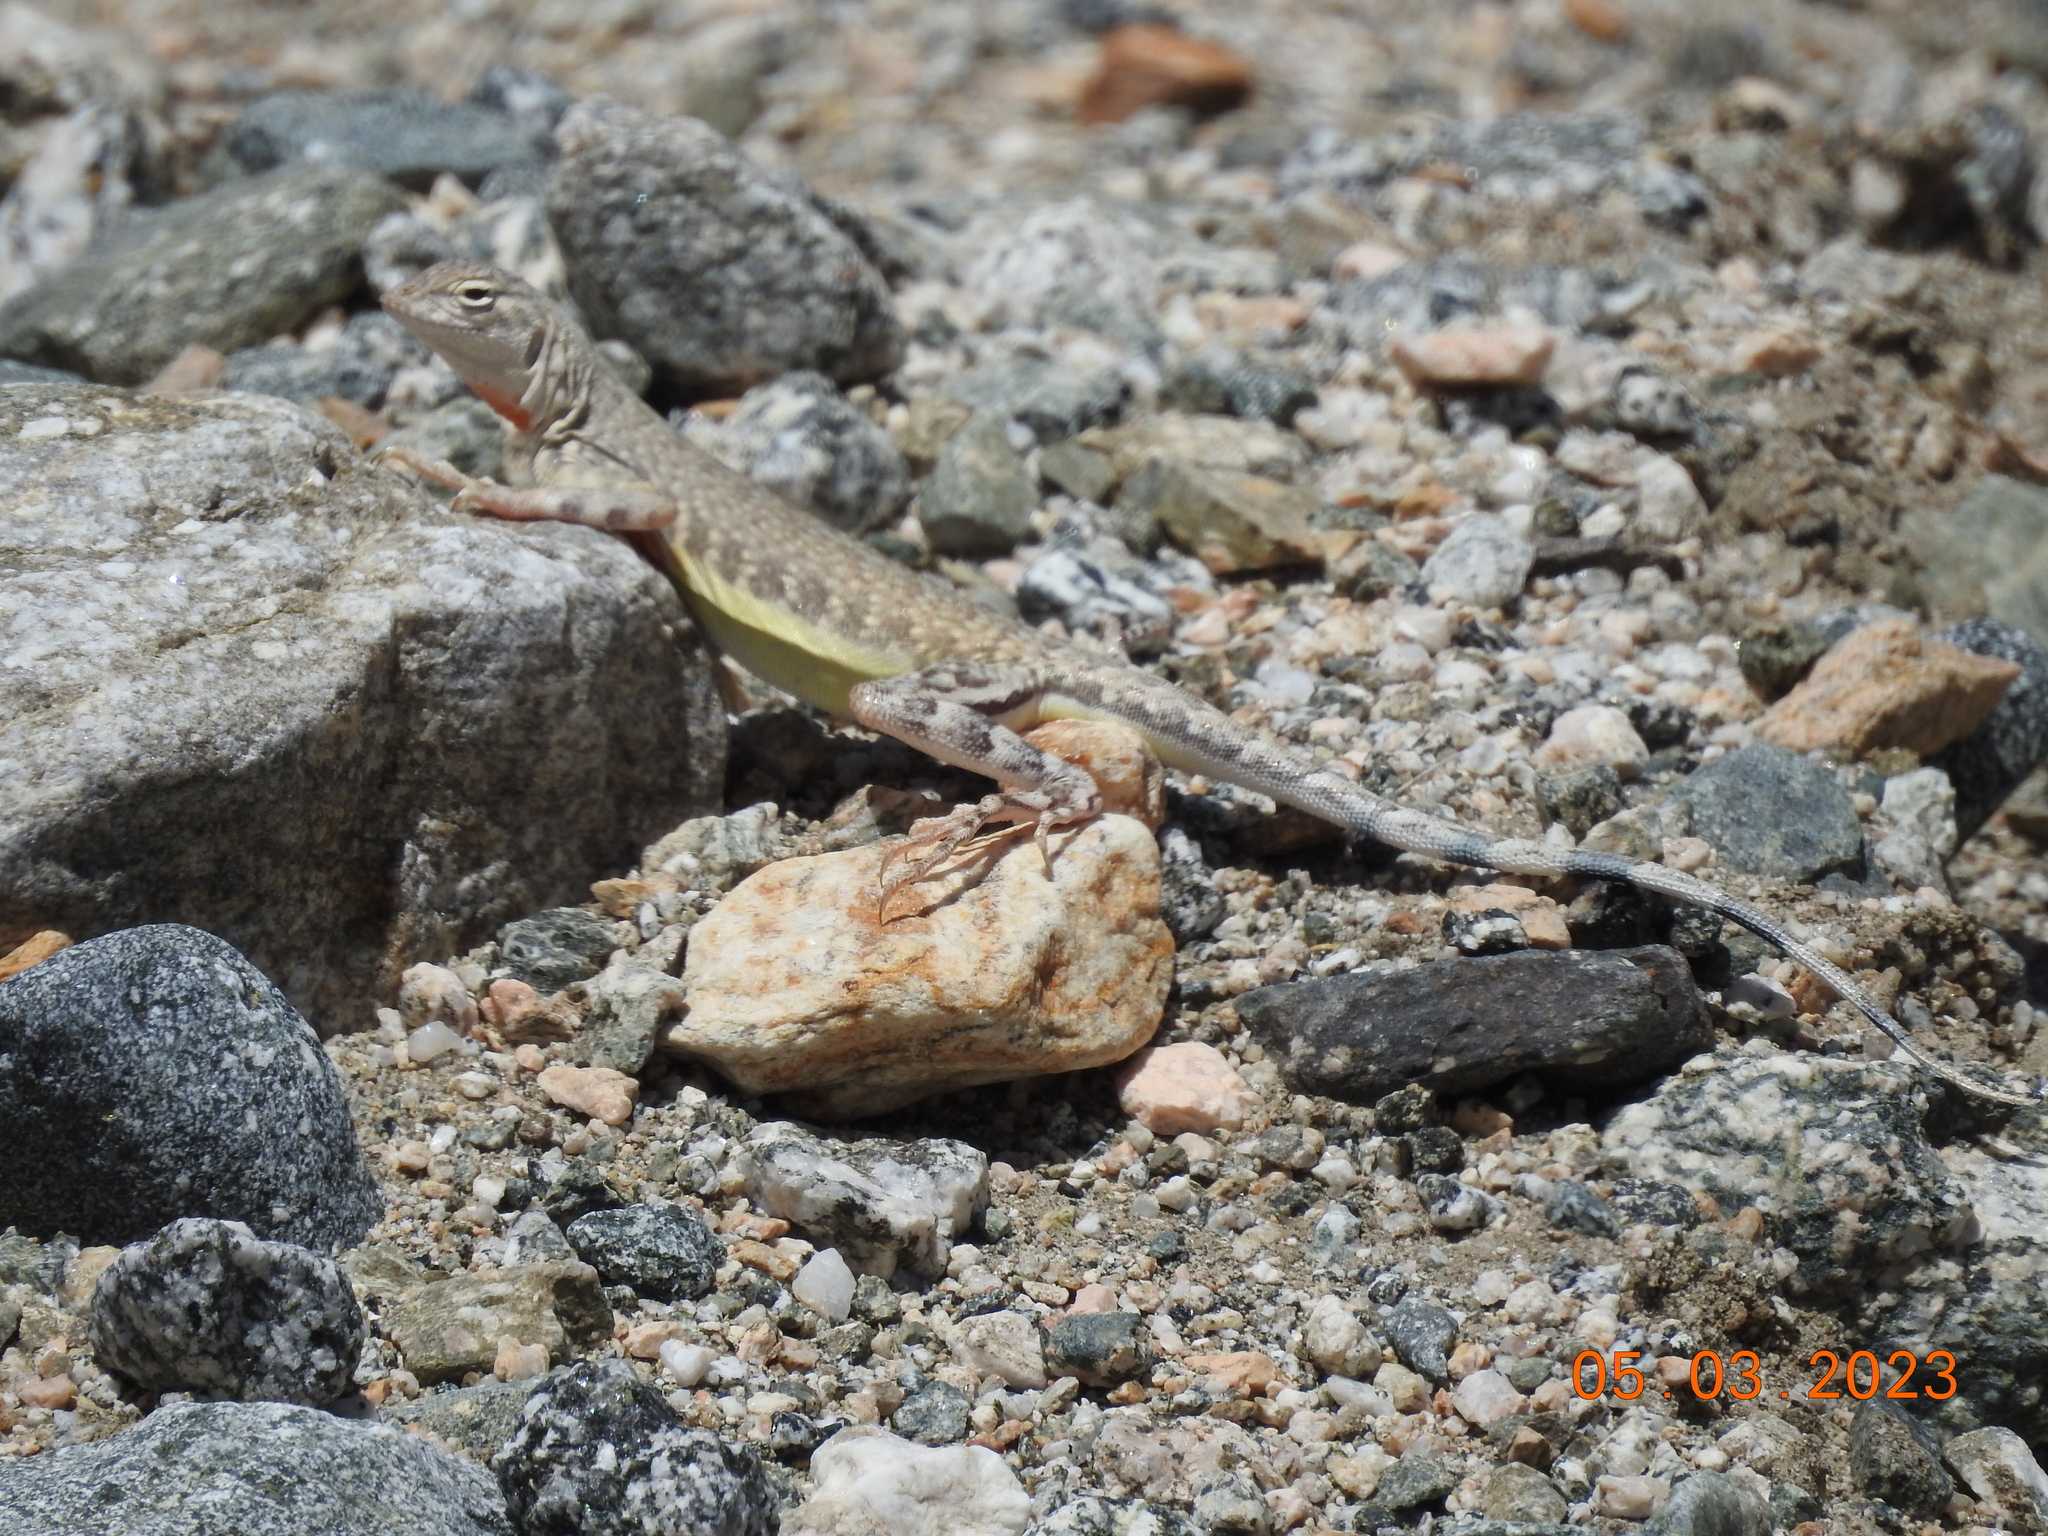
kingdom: Animalia
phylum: Chordata
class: Squamata
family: Phrynosomatidae
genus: Callisaurus
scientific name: Callisaurus draconoides
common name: Zebra-tailed lizard
